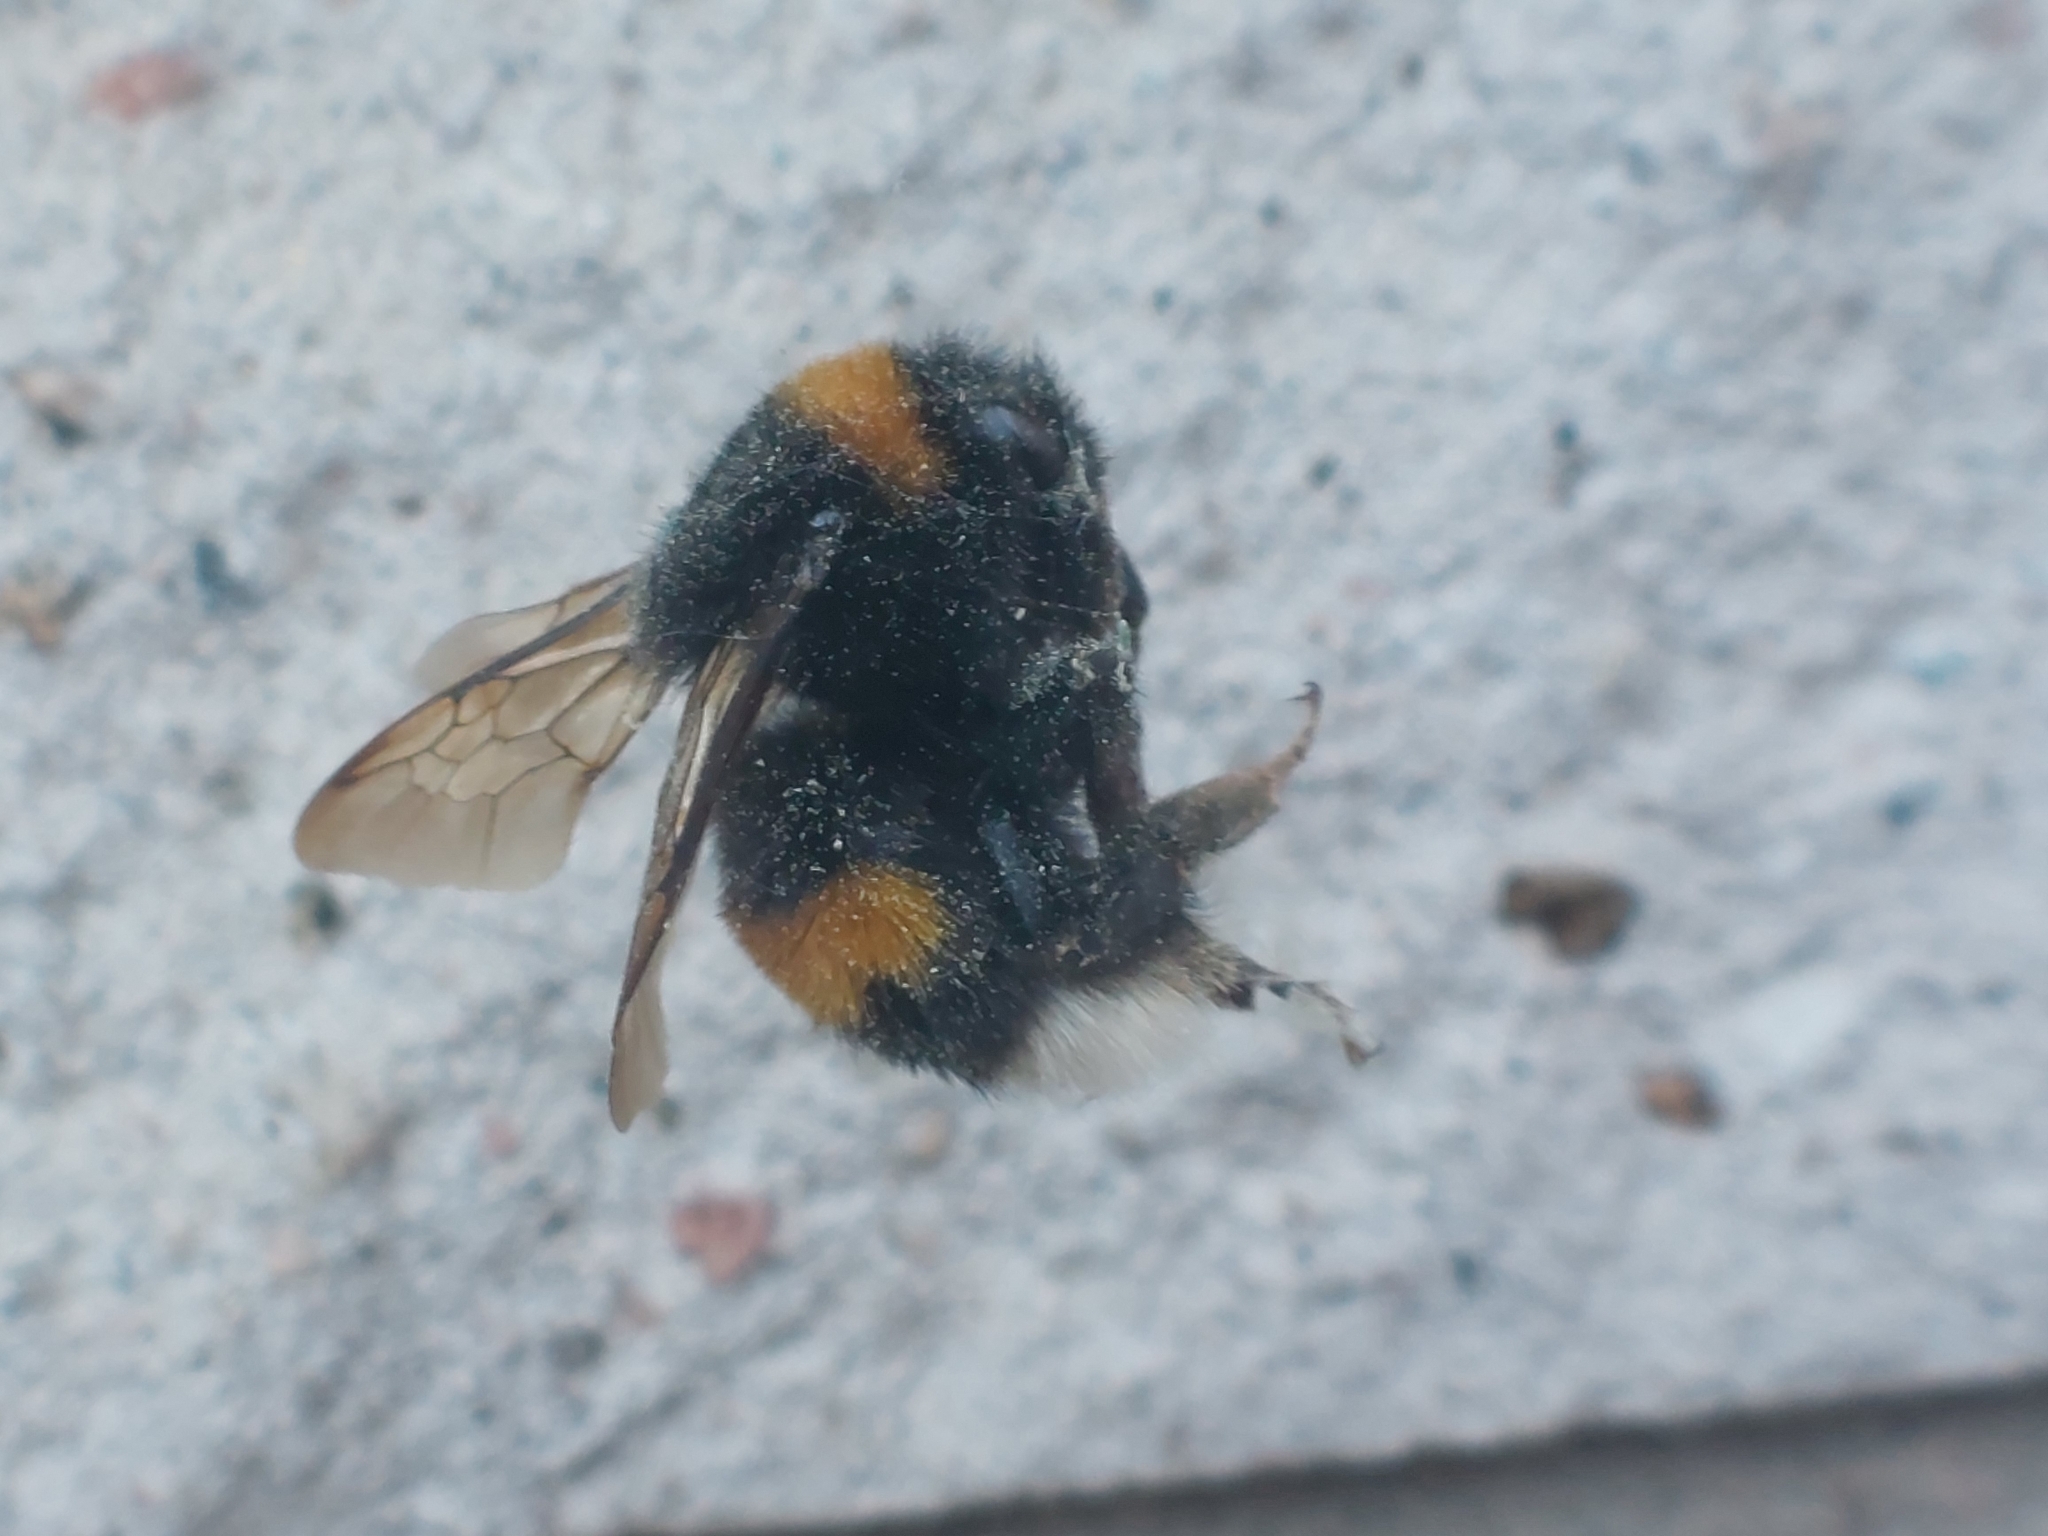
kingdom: Animalia
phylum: Arthropoda
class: Insecta
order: Hymenoptera
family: Apidae
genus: Bombus
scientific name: Bombus terrestris
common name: Buff-tailed bumblebee
